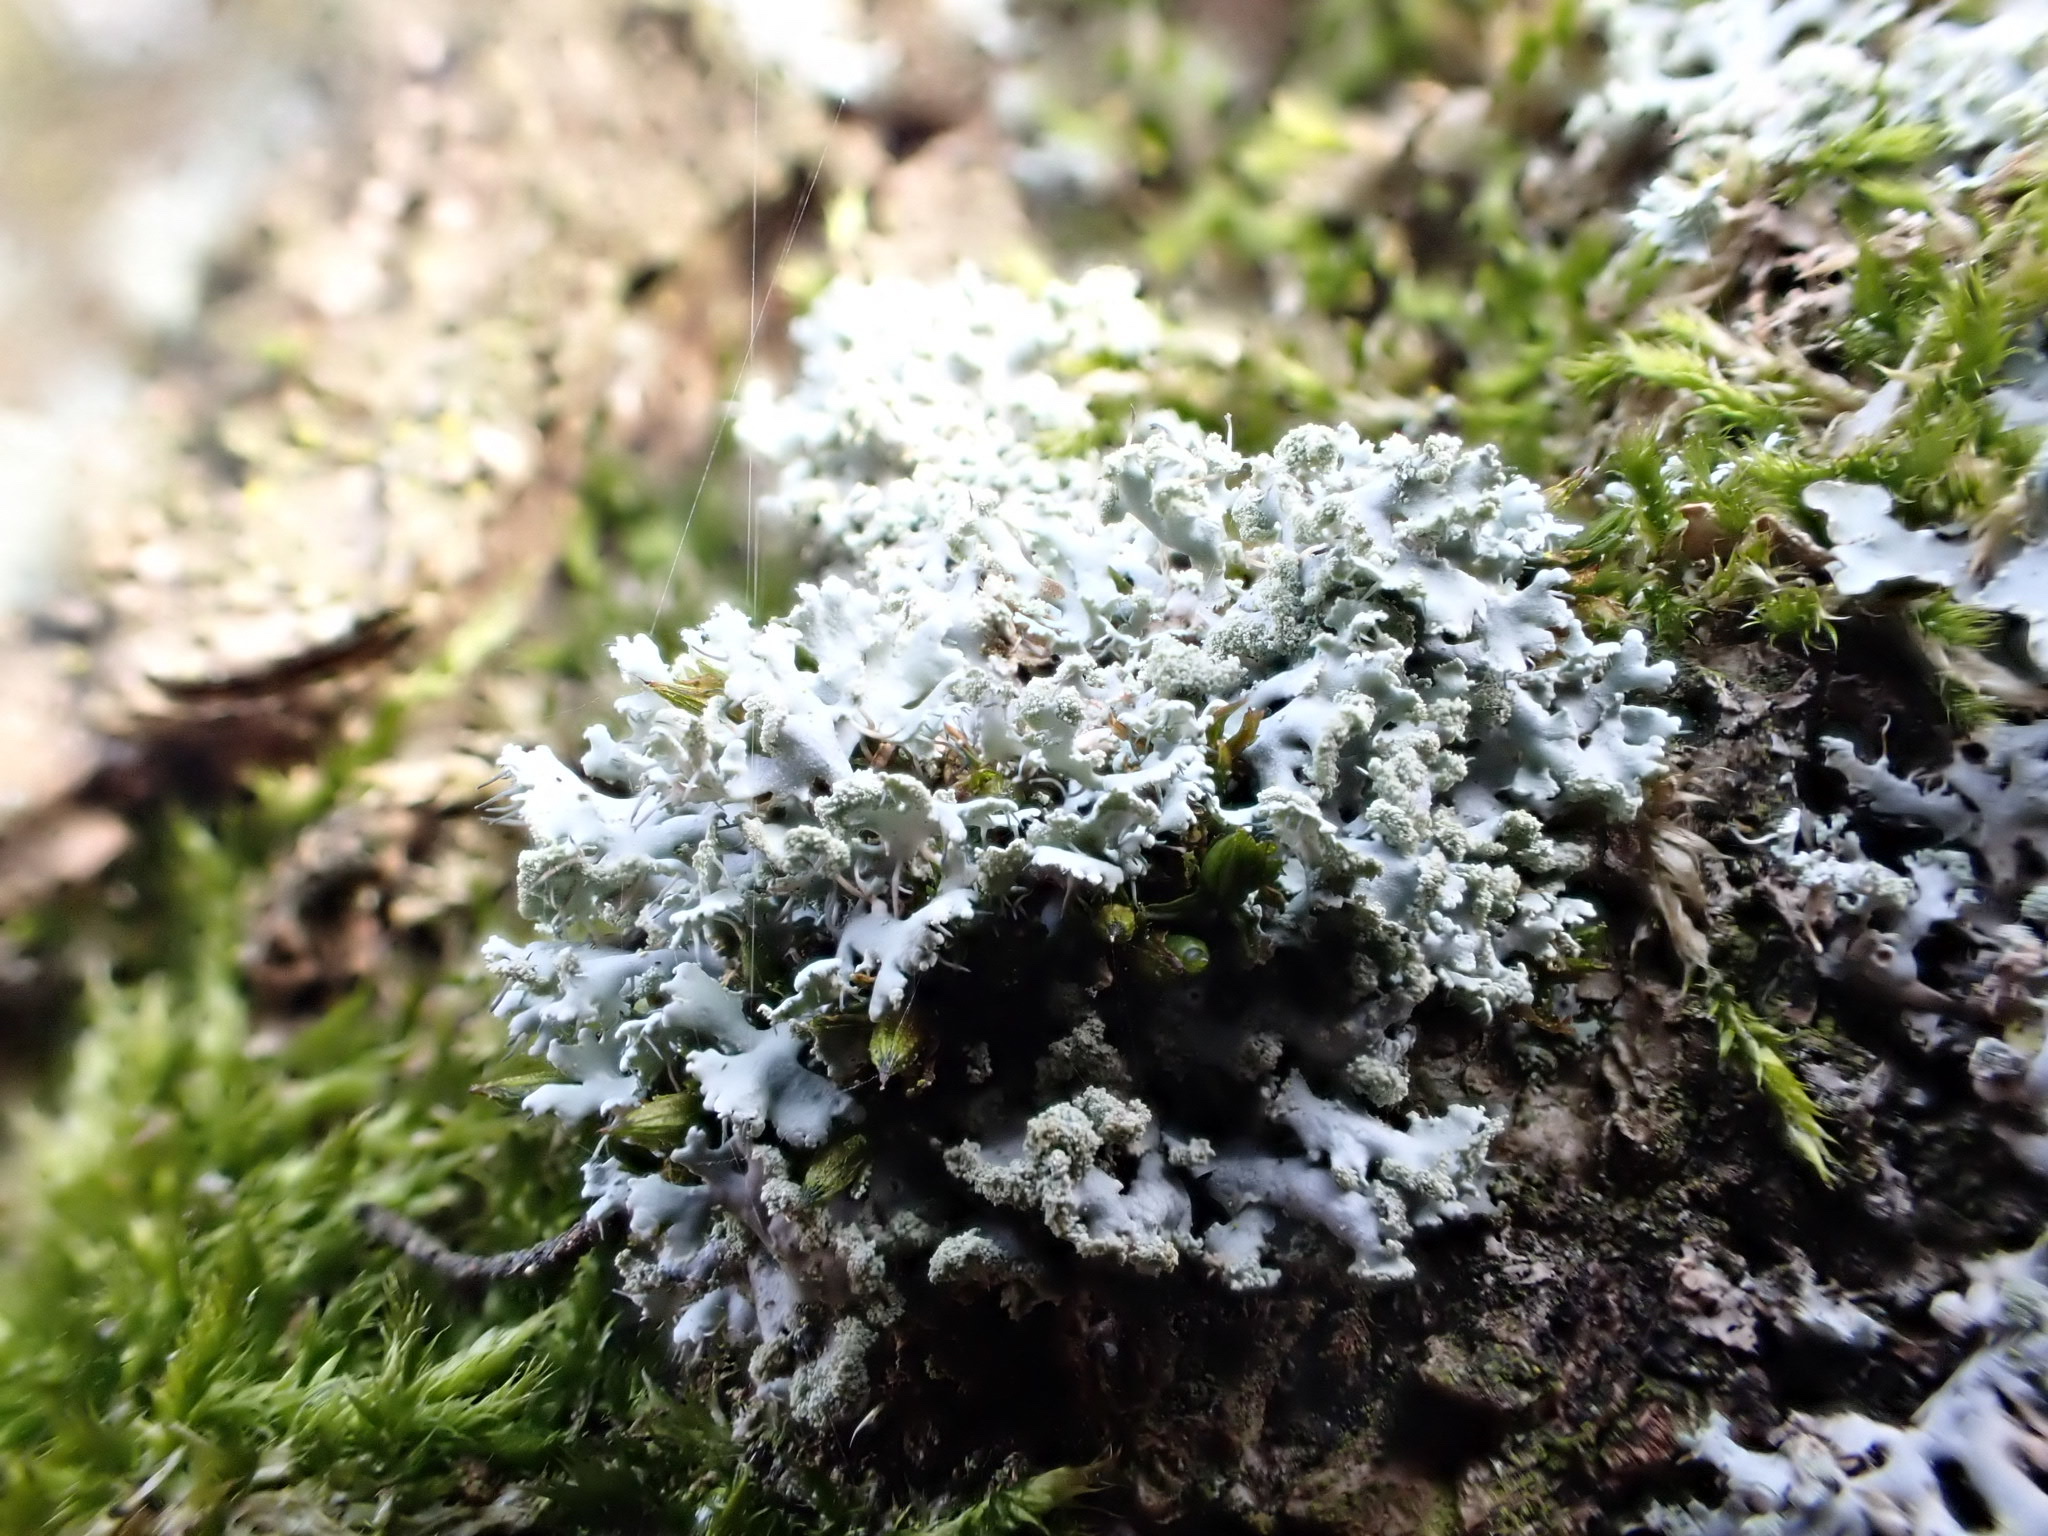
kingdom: Fungi
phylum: Ascomycota
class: Lecanoromycetes
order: Caliciales
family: Physciaceae
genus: Physcia
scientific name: Physcia tenella
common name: Fringed rosette lichen
